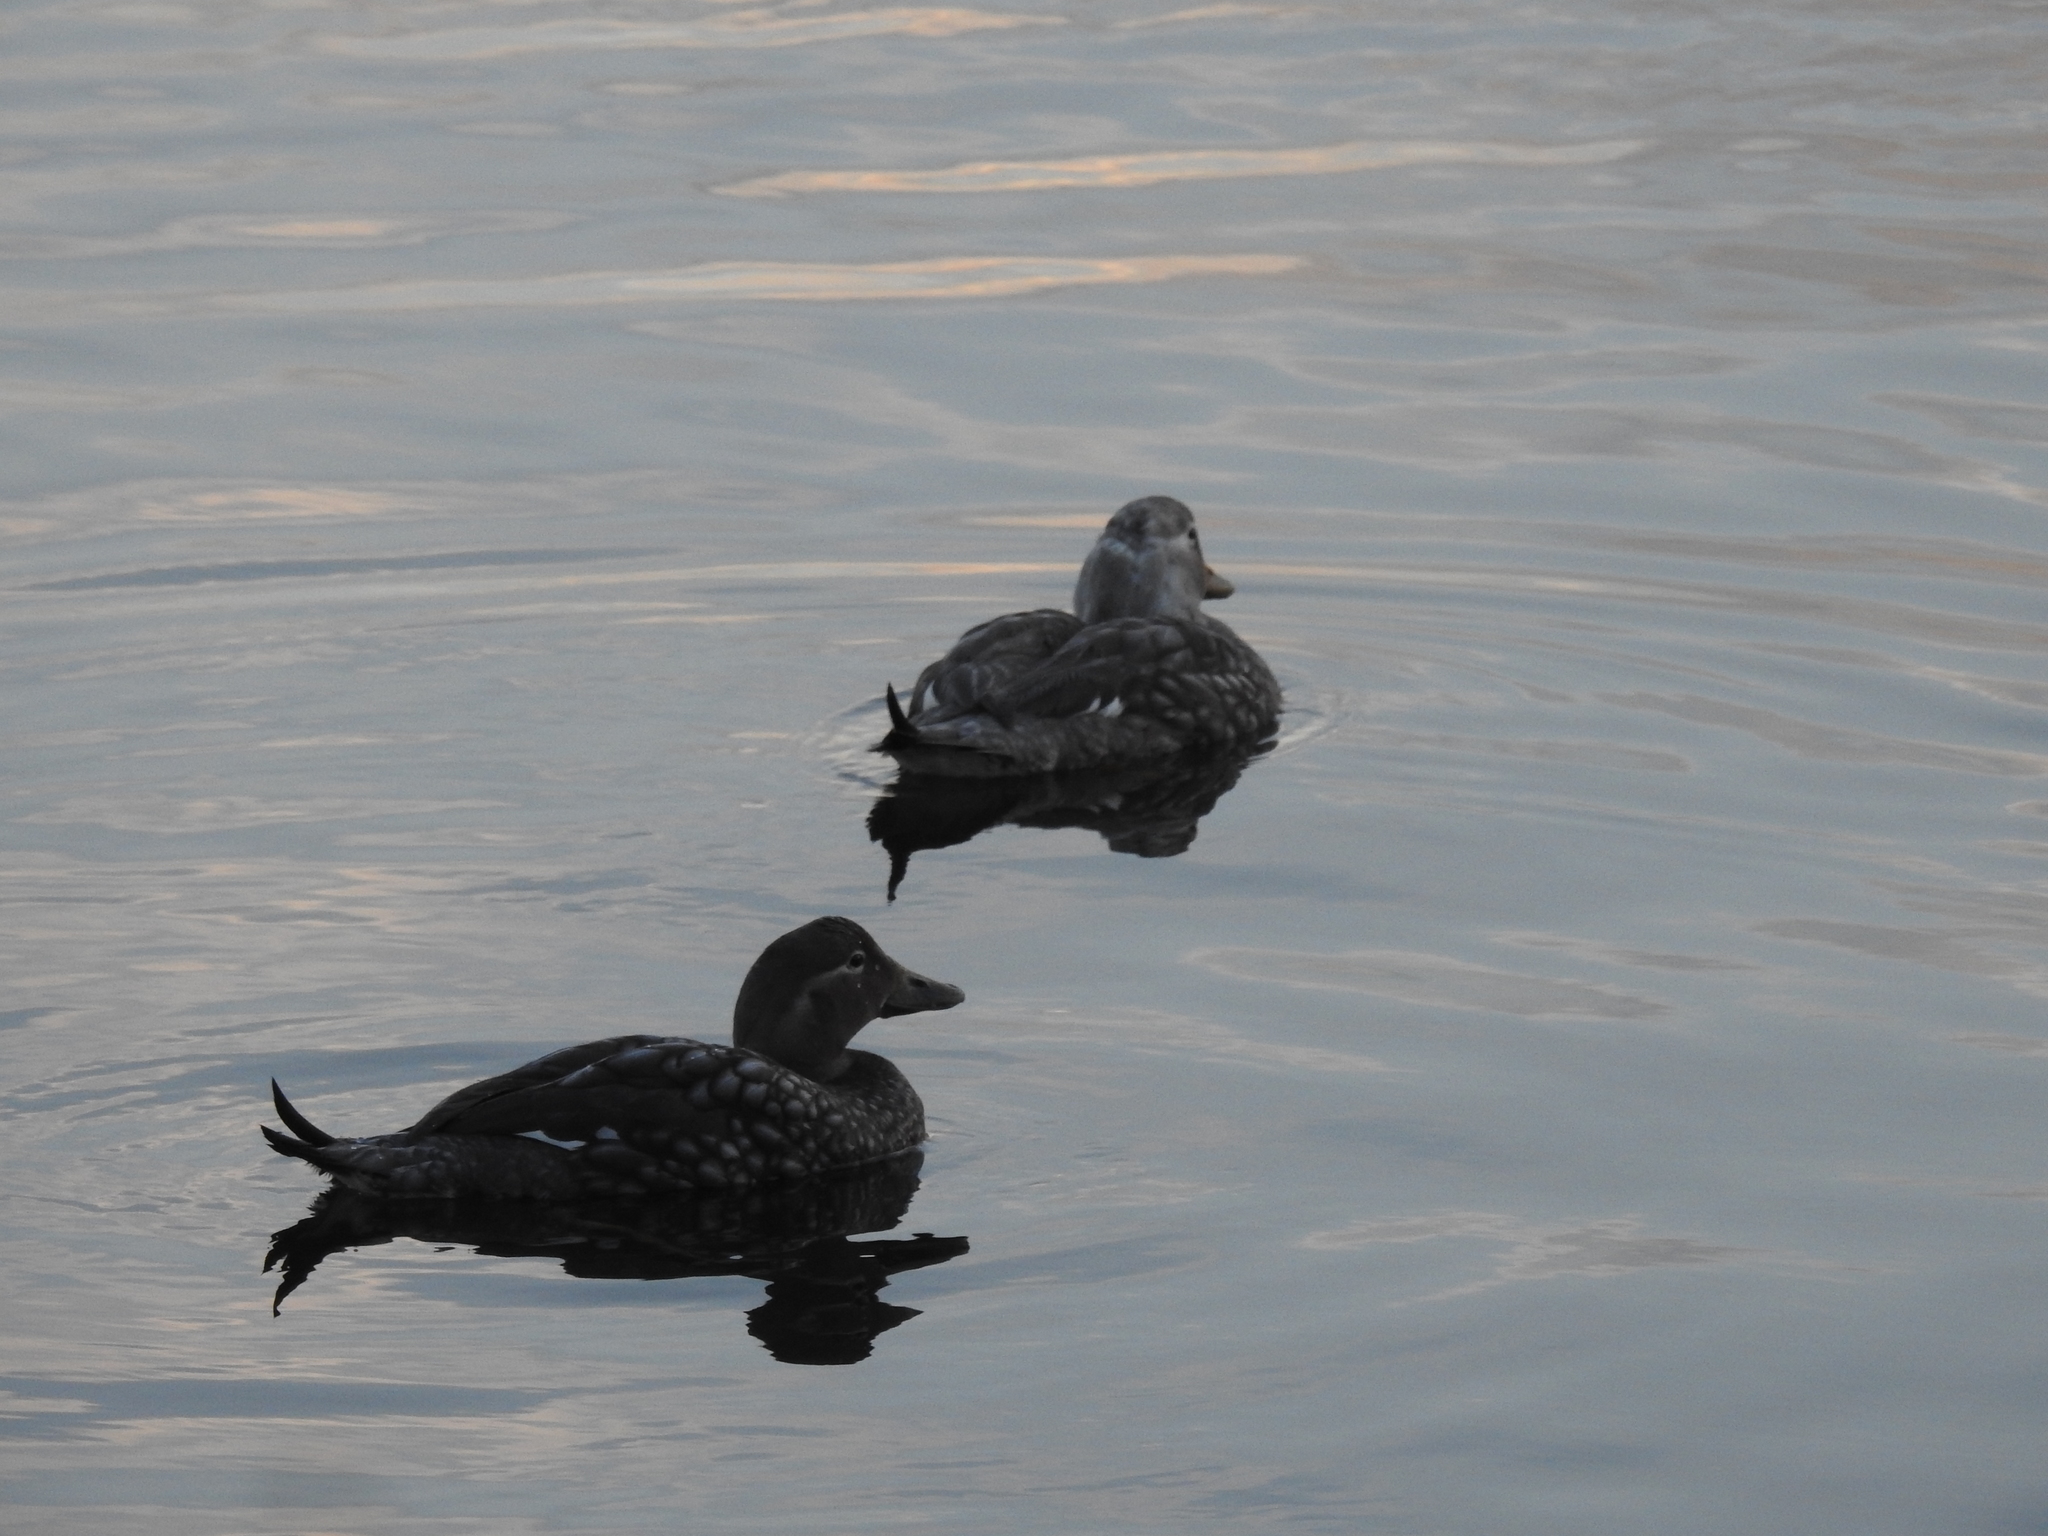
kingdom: Animalia
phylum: Chordata
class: Aves
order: Anseriformes
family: Anatidae
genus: Tachyeres
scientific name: Tachyeres patachonicus
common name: Flying steamer duck
